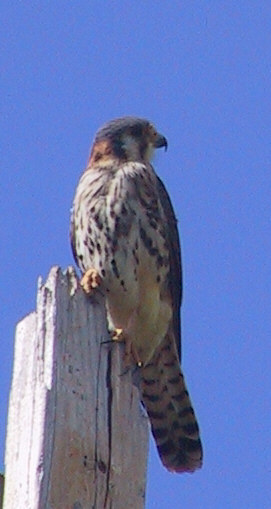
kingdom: Animalia
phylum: Chordata
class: Aves
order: Falconiformes
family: Falconidae
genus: Falco
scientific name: Falco sparverius
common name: American kestrel
